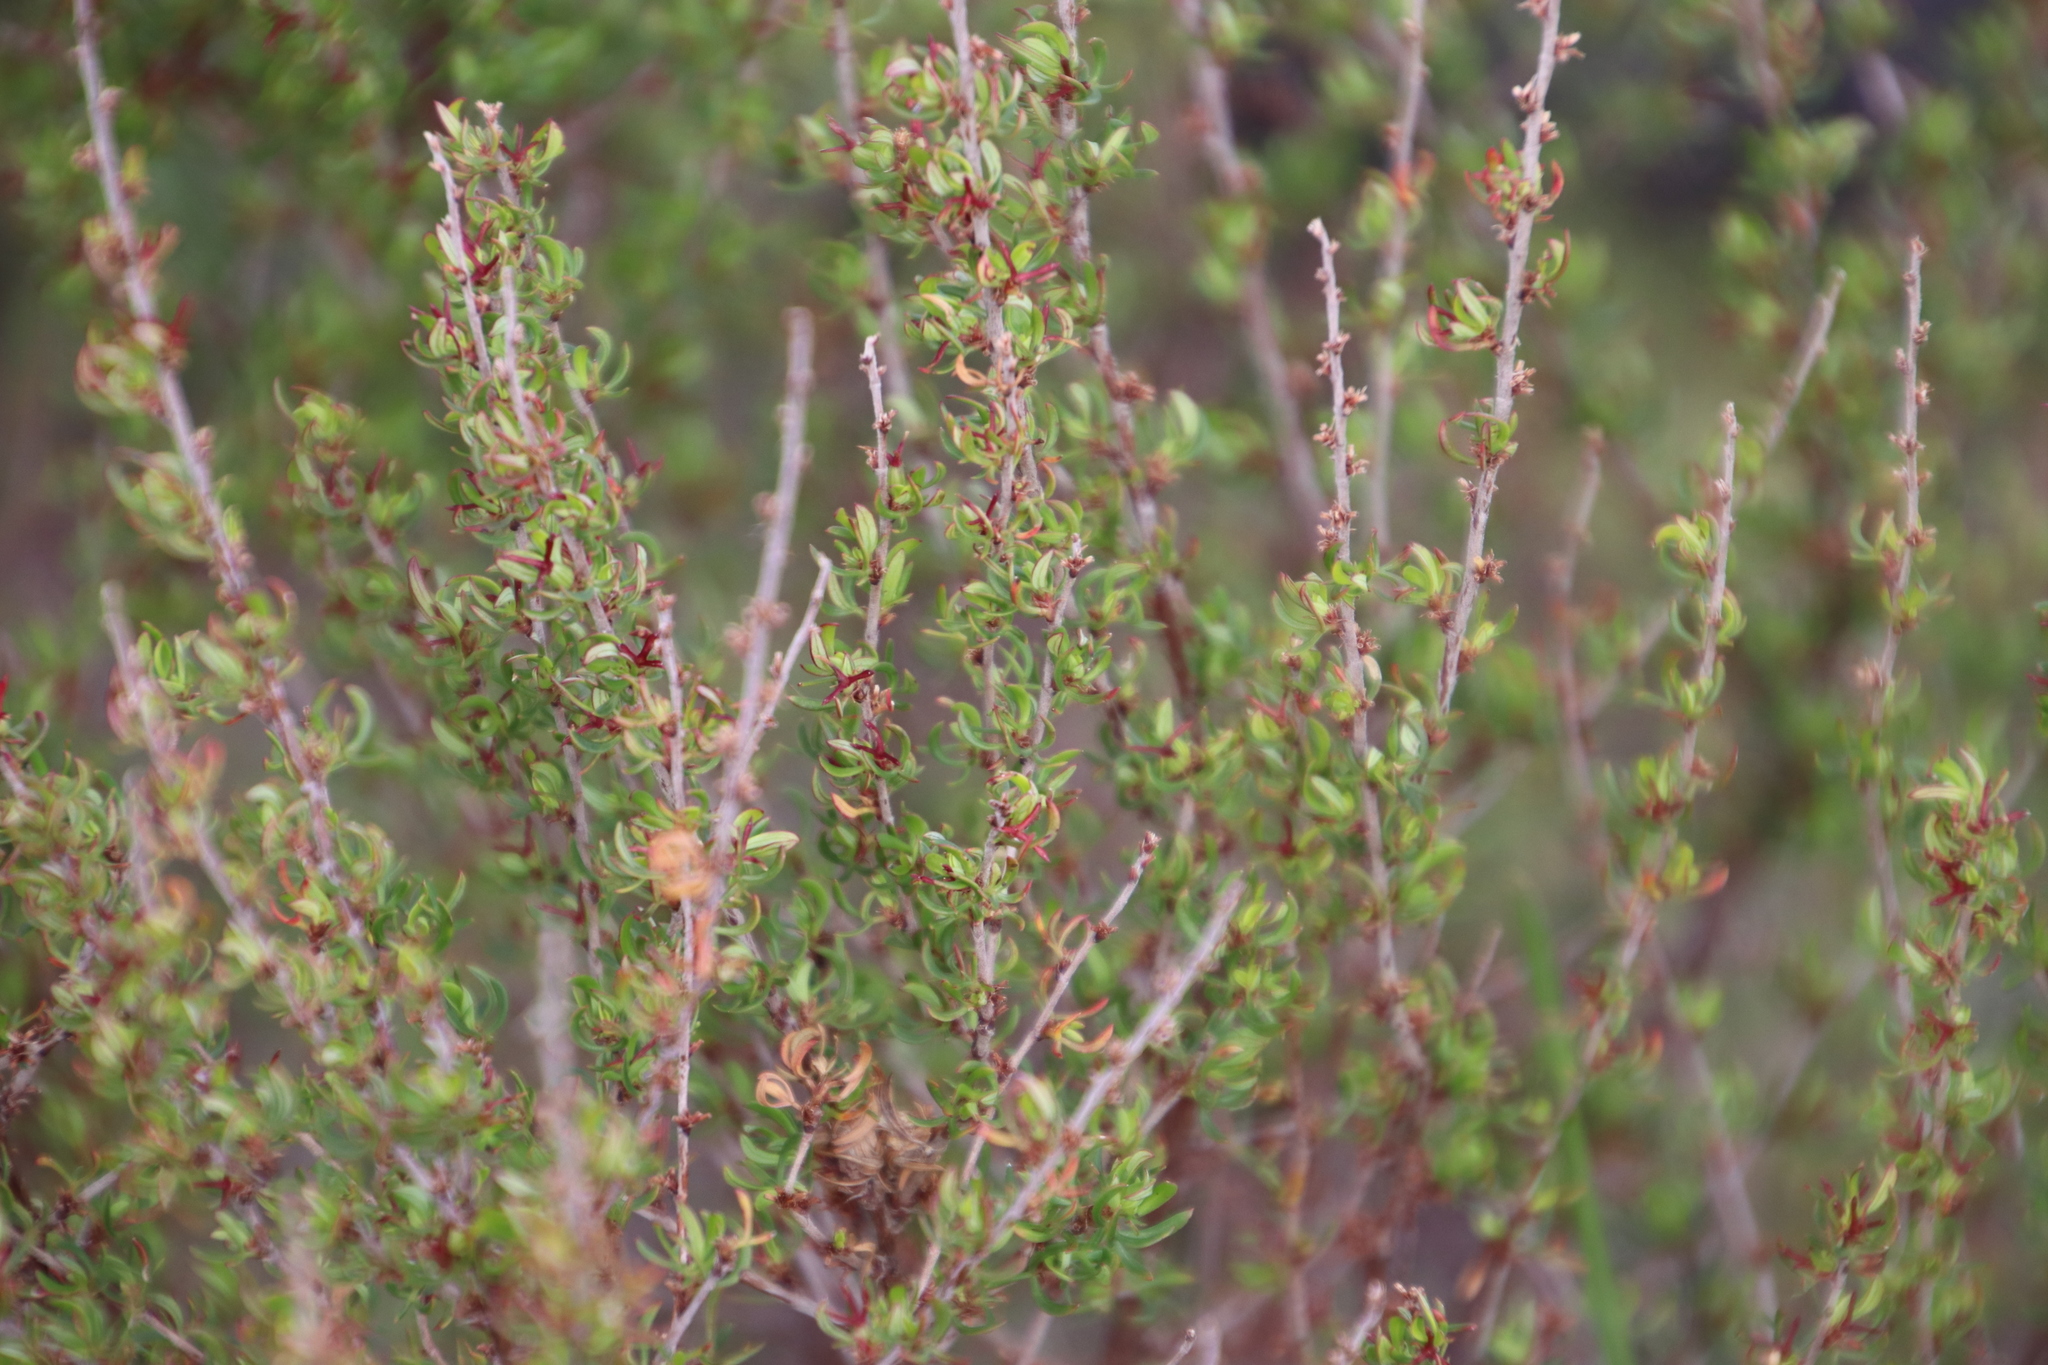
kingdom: Plantae
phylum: Tracheophyta
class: Magnoliopsida
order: Rosales
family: Rosaceae
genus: Cliffortia
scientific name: Cliffortia falcata
